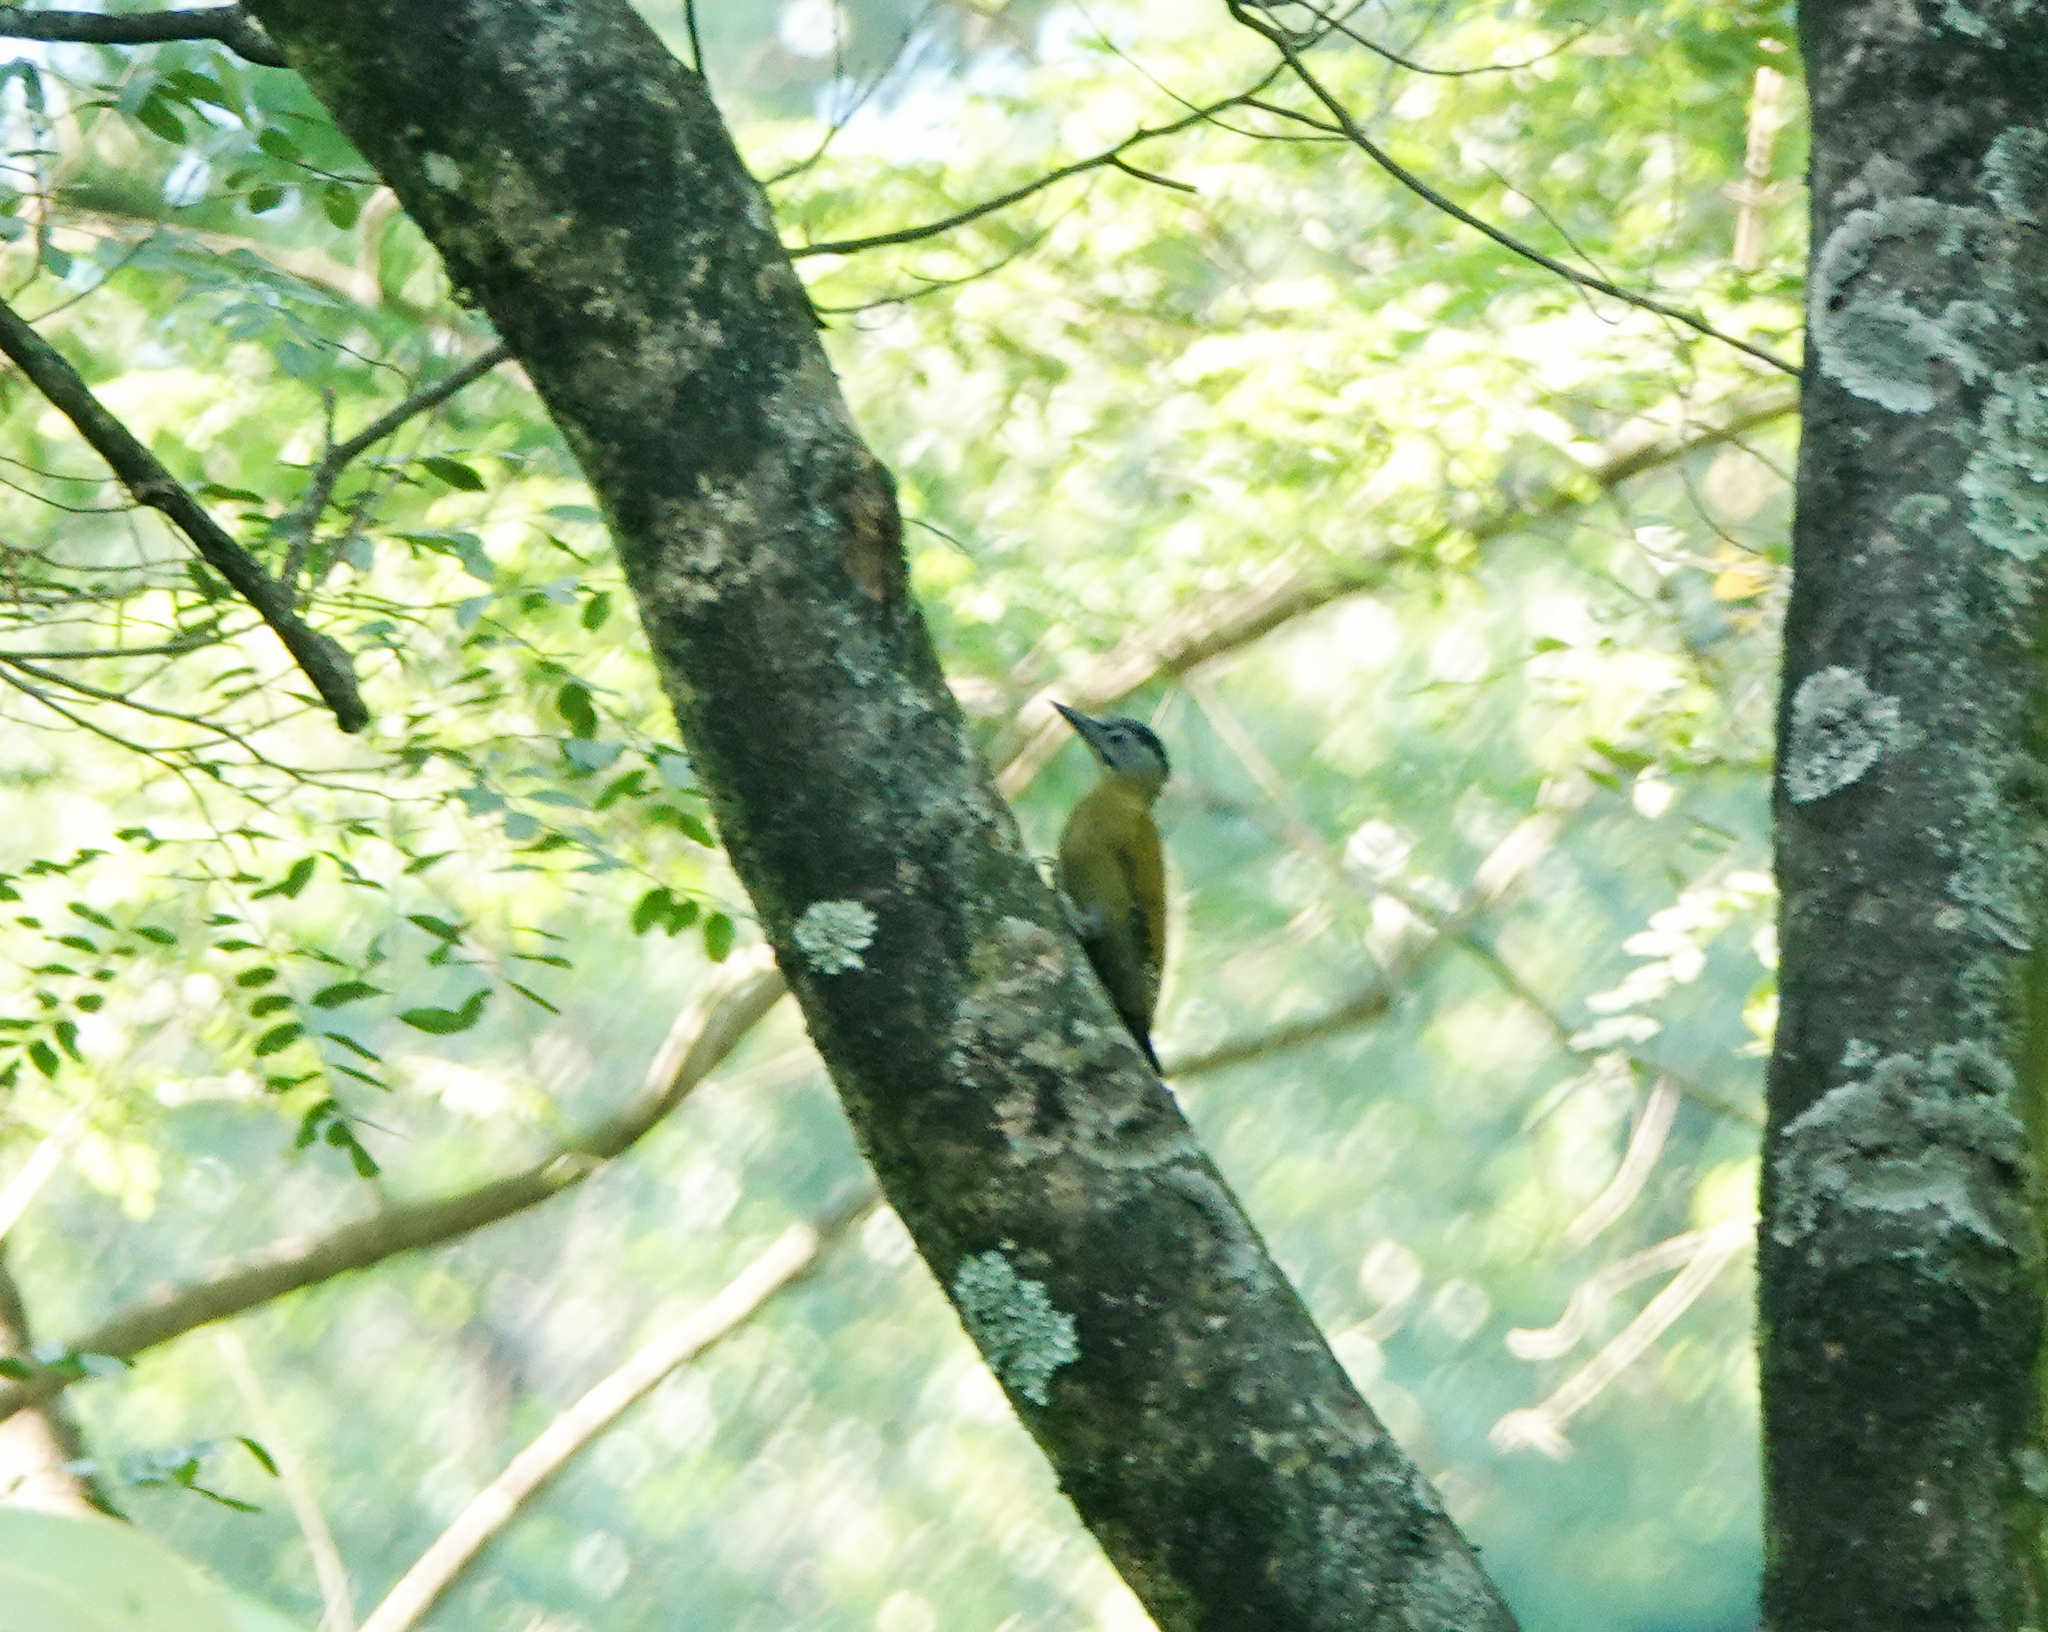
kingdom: Animalia
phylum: Chordata
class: Aves
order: Piciformes
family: Picidae
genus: Picus
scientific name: Picus canus
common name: Grey-headed woodpecker
